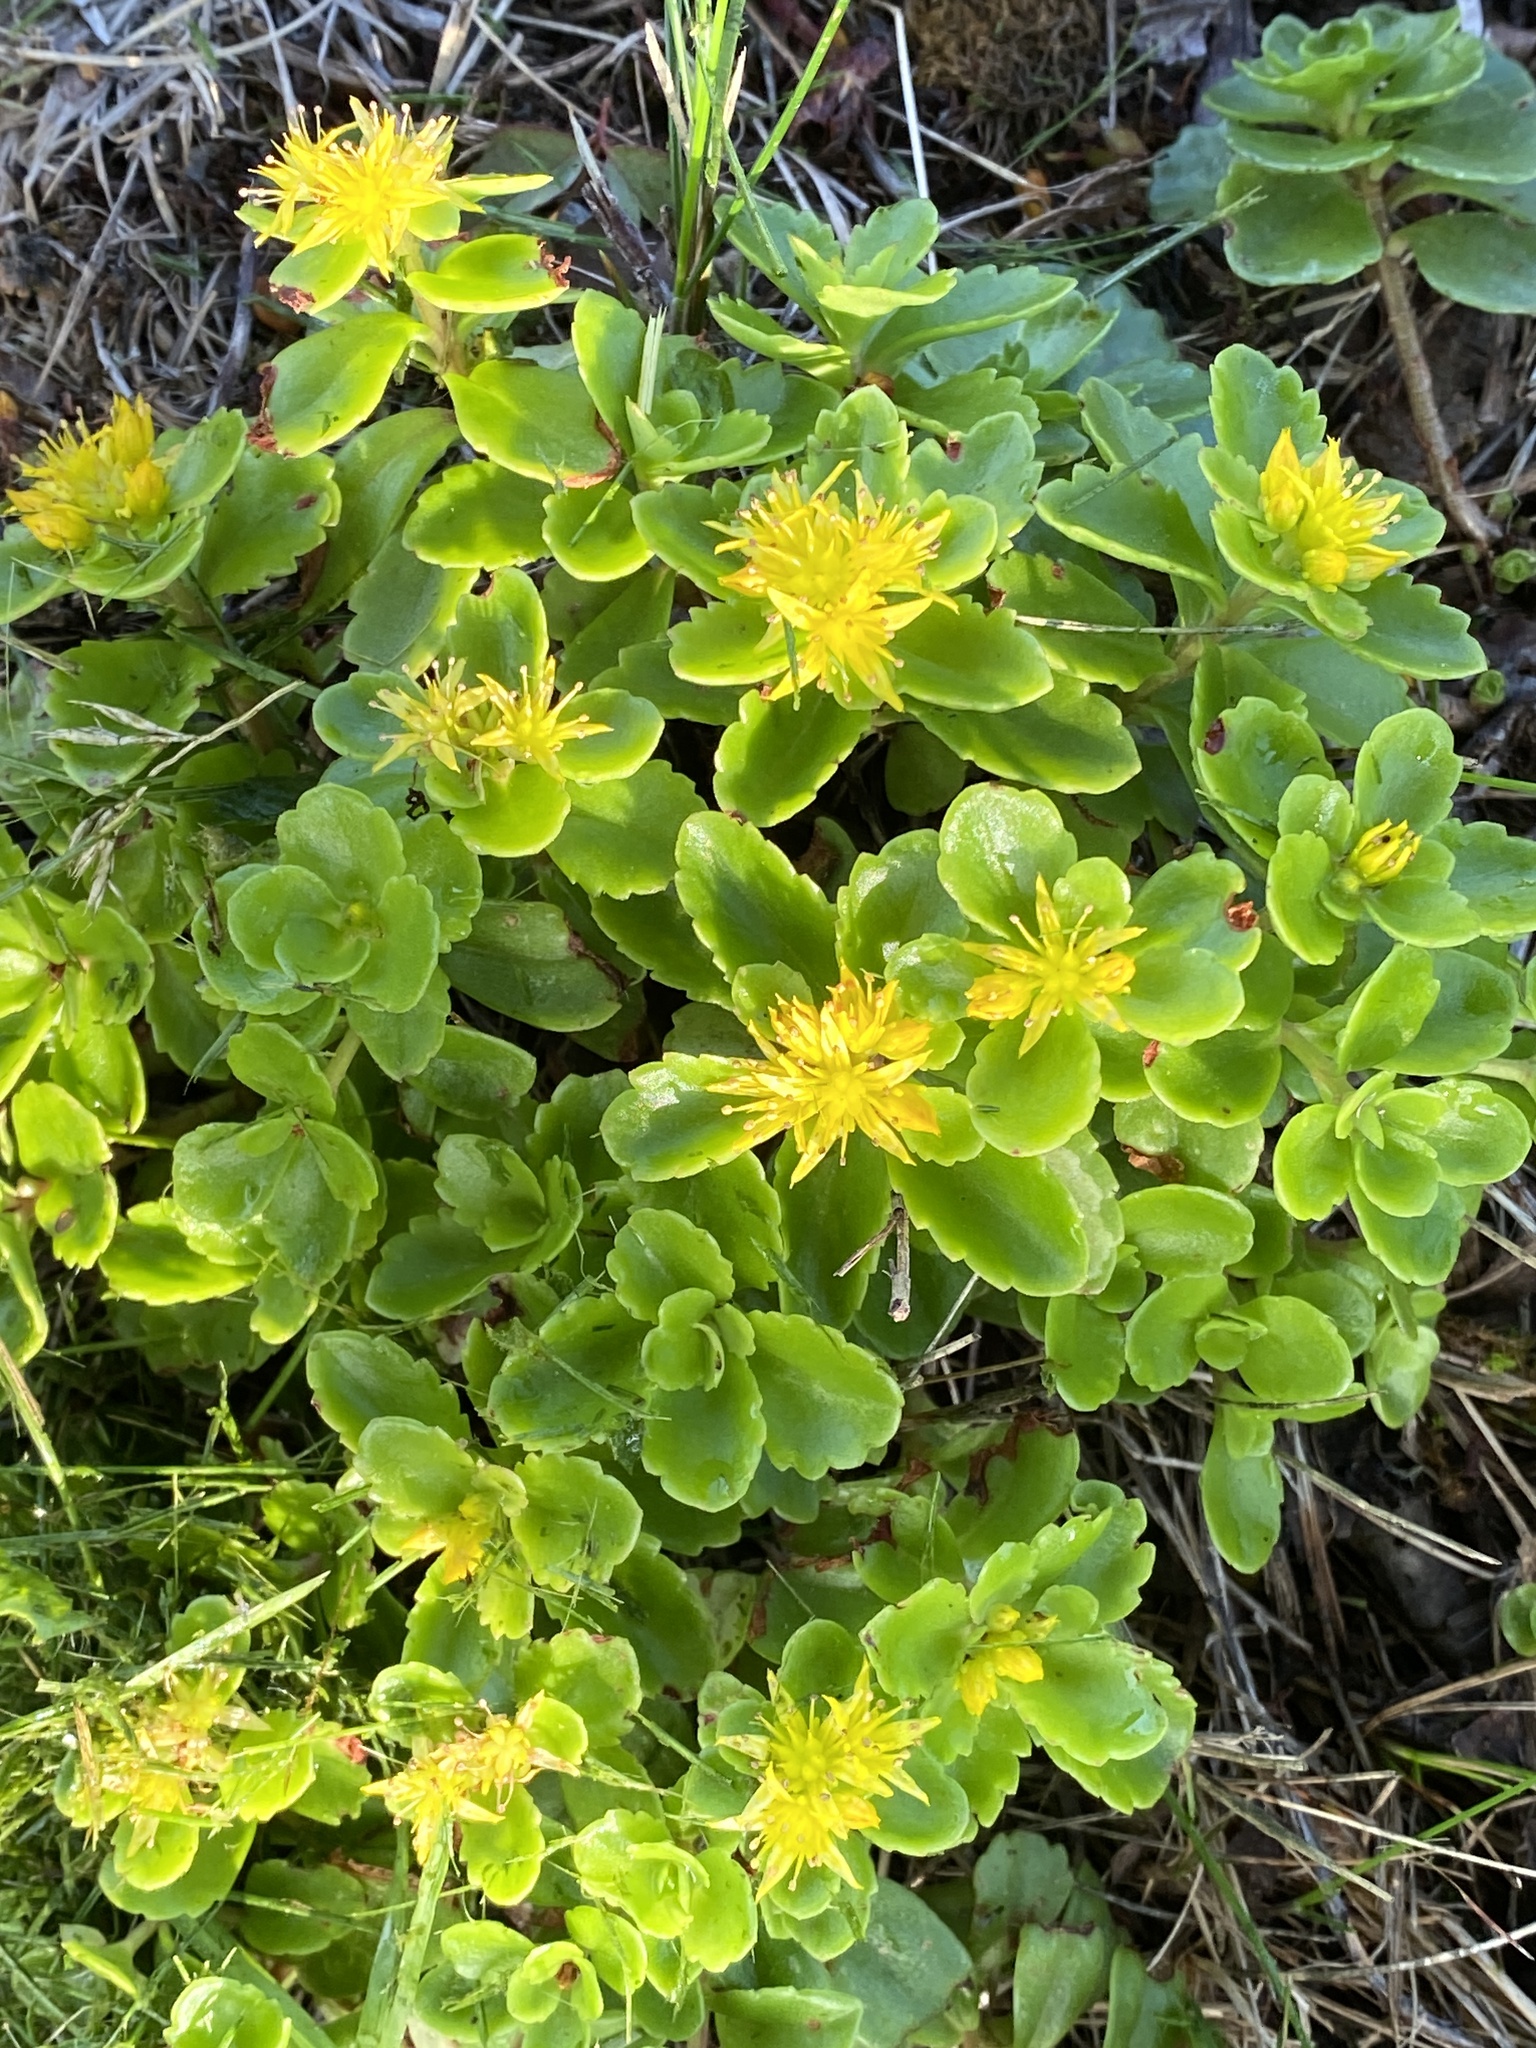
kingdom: Plantae
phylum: Tracheophyta
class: Magnoliopsida
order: Saxifragales
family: Crassulaceae
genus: Phedimus
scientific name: Phedimus ellacombeanus
